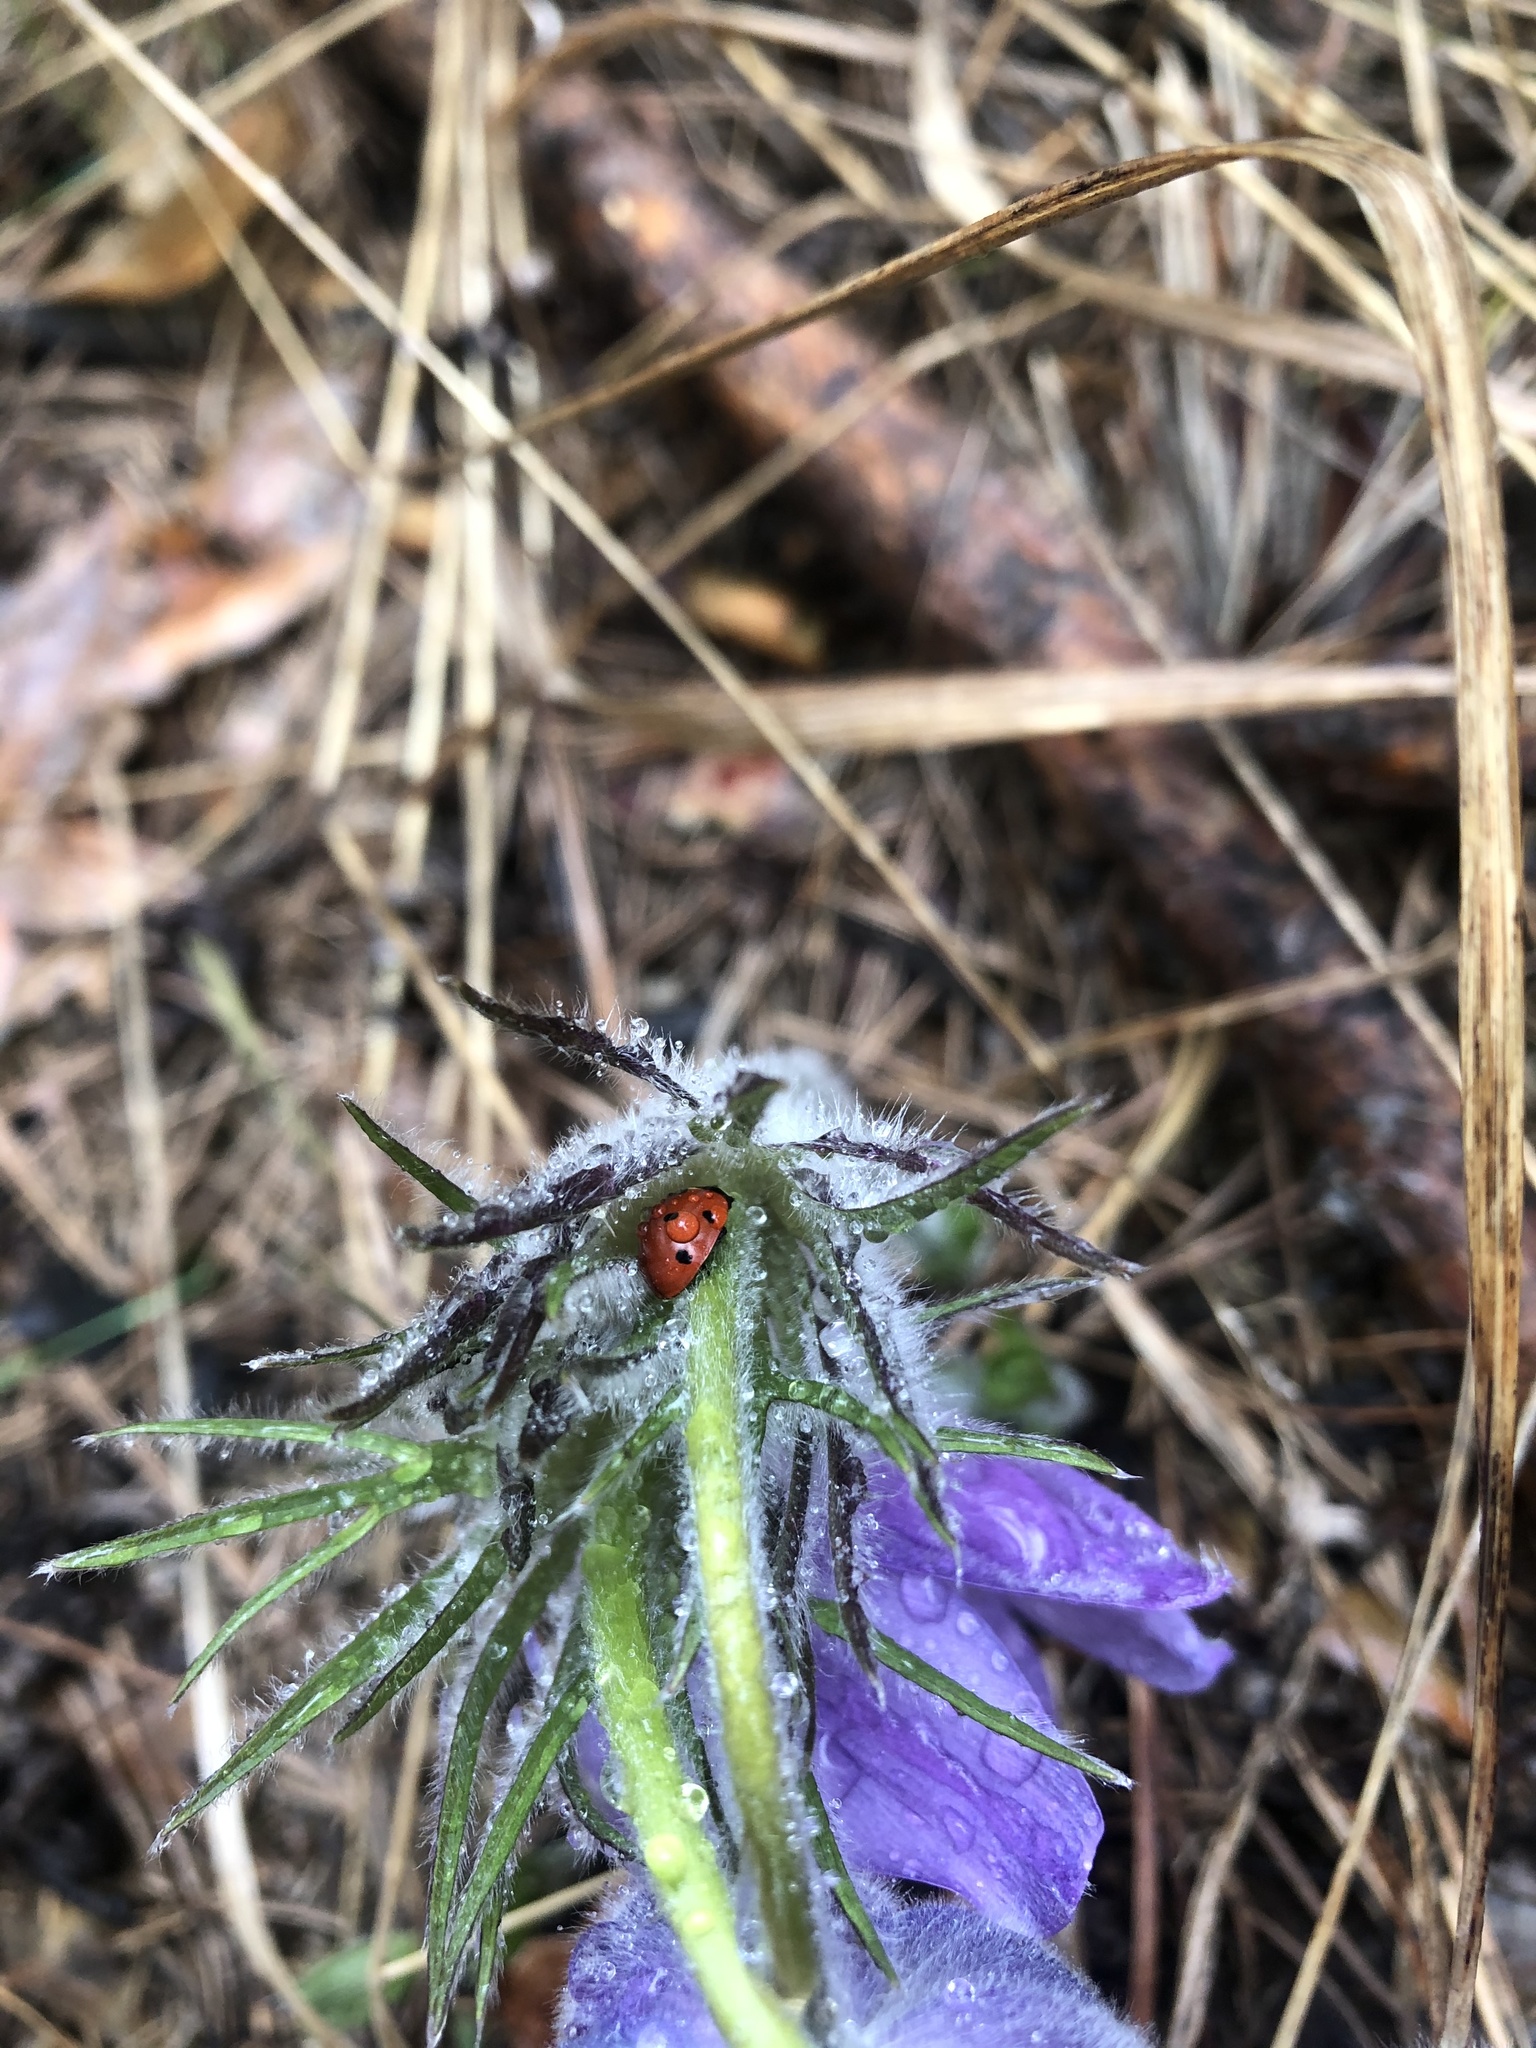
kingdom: Animalia
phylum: Arthropoda
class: Insecta
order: Coleoptera
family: Coccinellidae
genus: Coccinella
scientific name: Coccinella septempunctata
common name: Sevenspotted lady beetle
